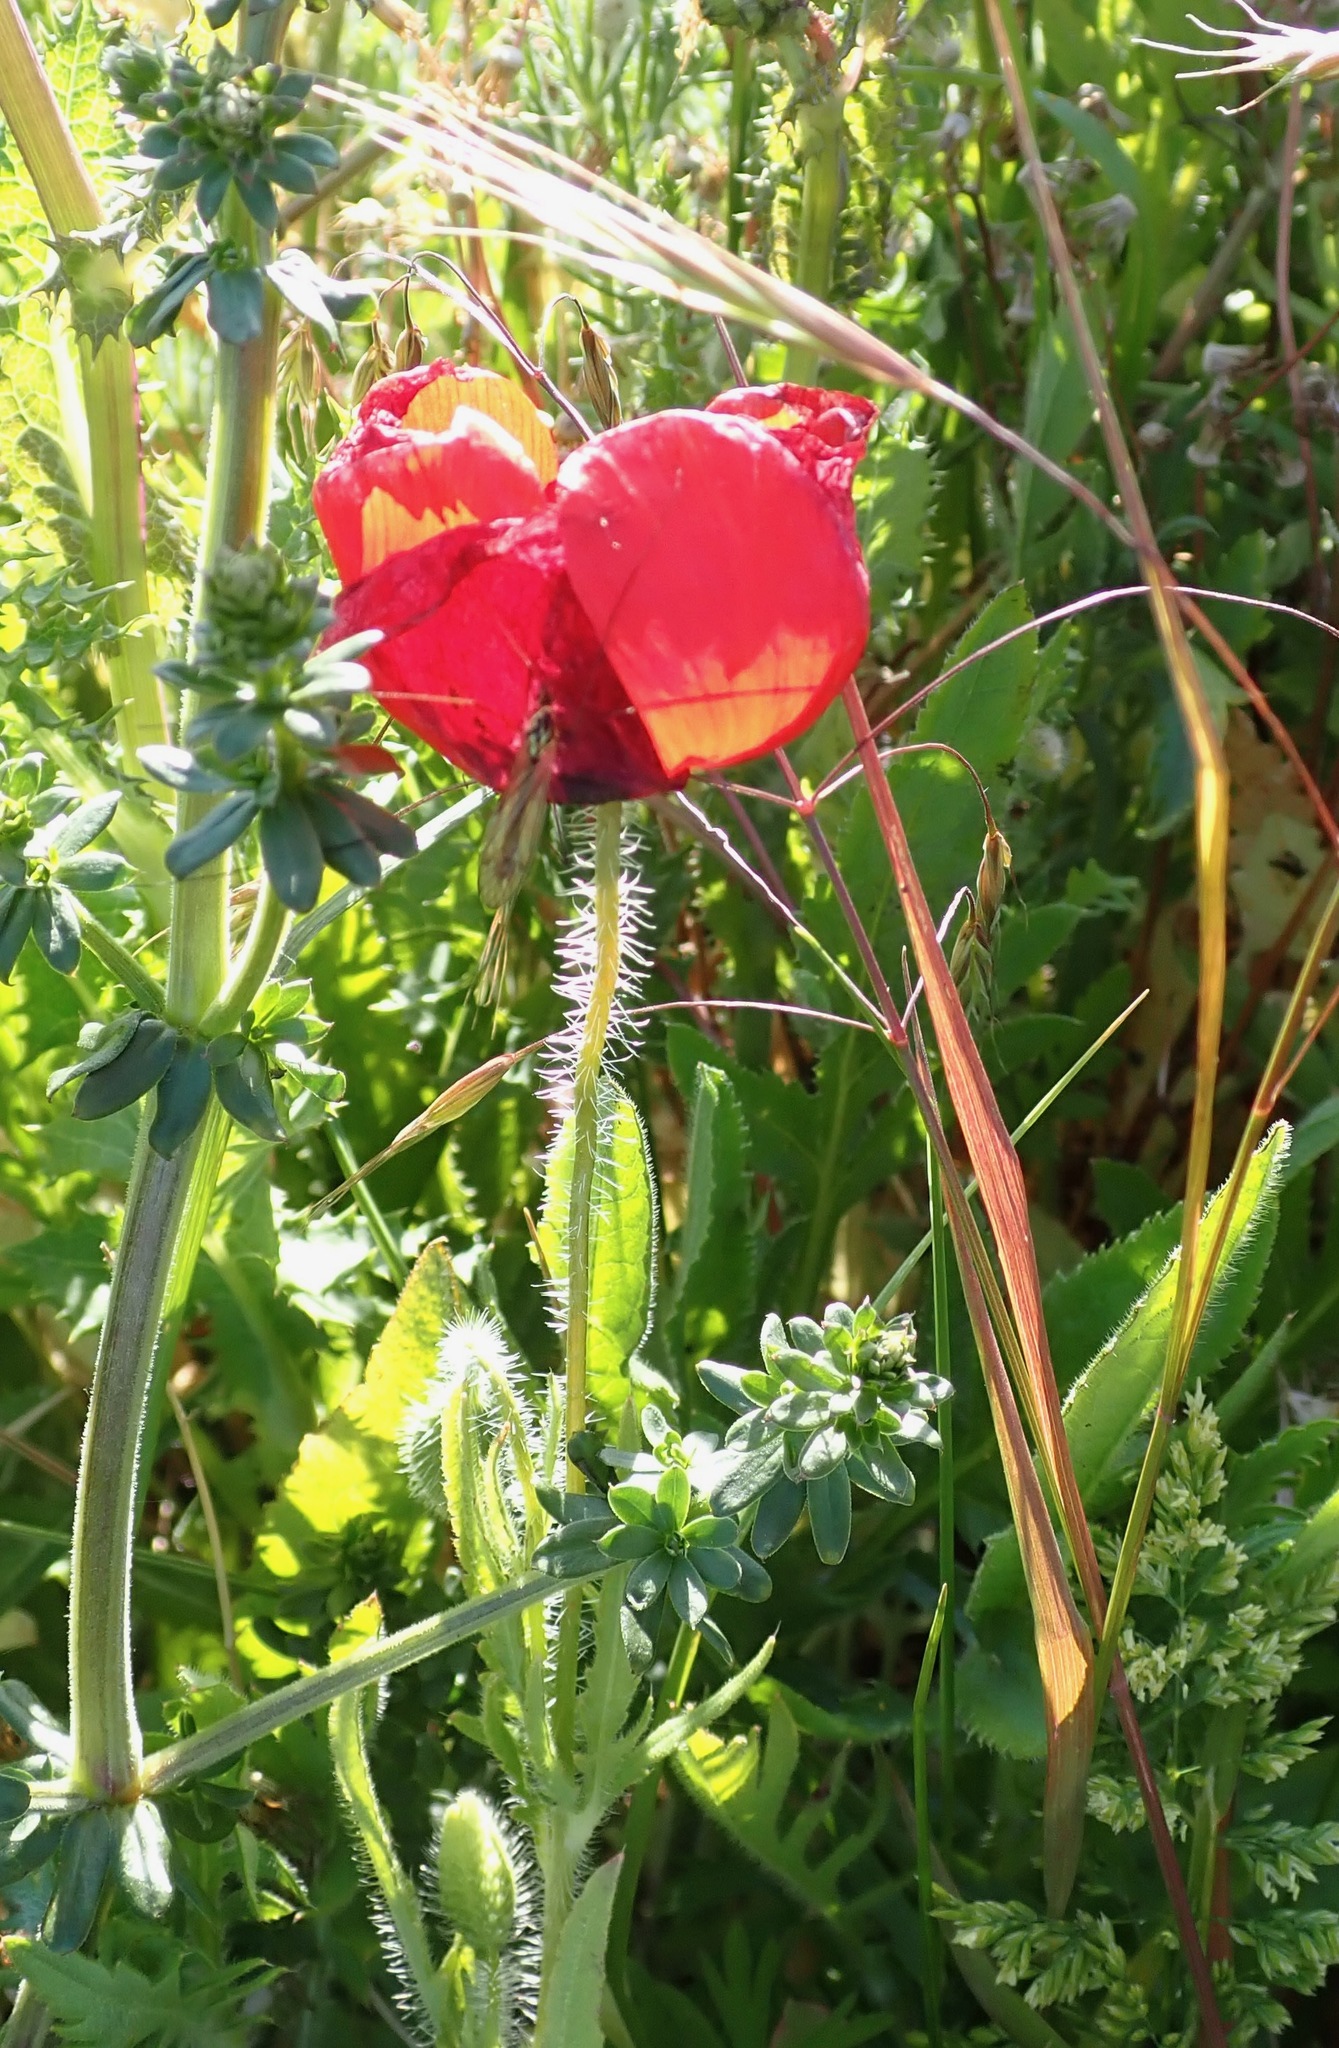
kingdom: Plantae
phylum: Tracheophyta
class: Magnoliopsida
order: Ranunculales
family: Papaveraceae
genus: Papaver
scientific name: Papaver rhoeas
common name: Corn poppy
